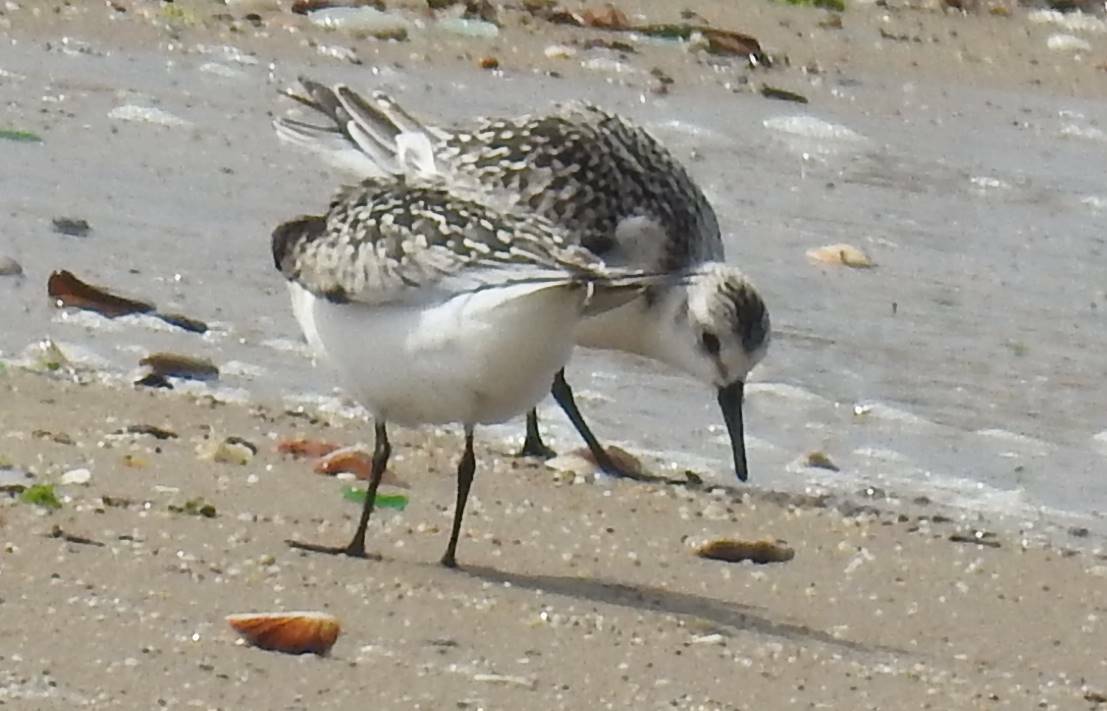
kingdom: Animalia
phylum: Chordata
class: Aves
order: Charadriiformes
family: Scolopacidae
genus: Calidris
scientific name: Calidris alba
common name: Sanderling
